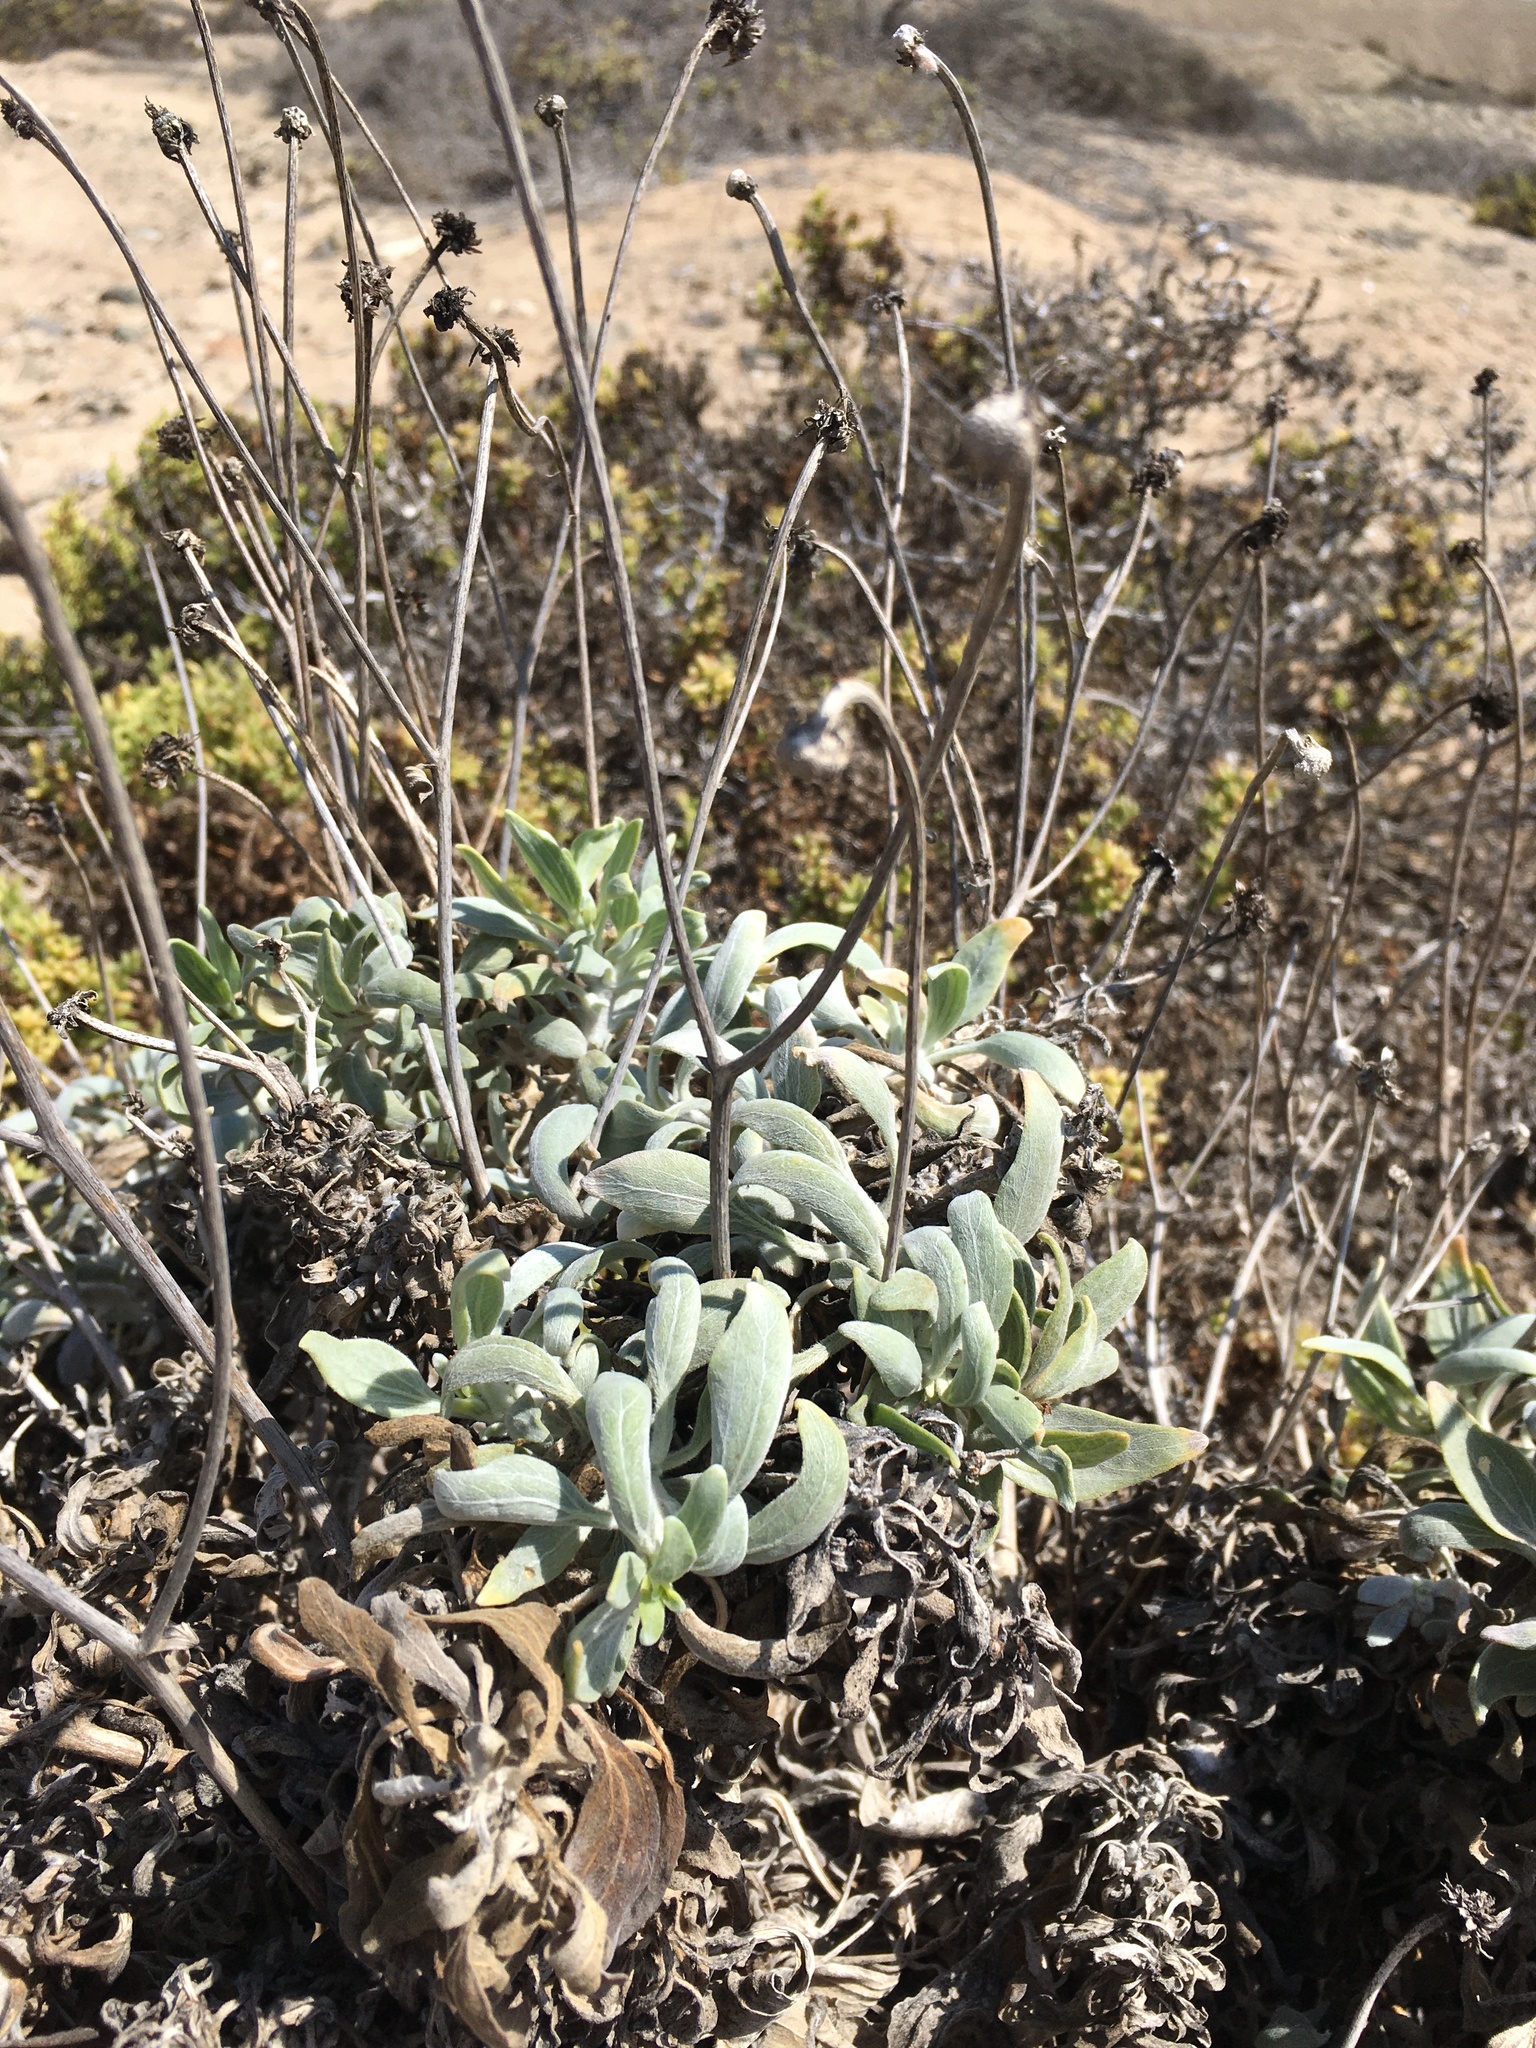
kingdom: Plantae
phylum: Tracheophyta
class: Magnoliopsida
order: Asterales
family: Asteraceae
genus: Encelia
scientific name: Encelia canescens
